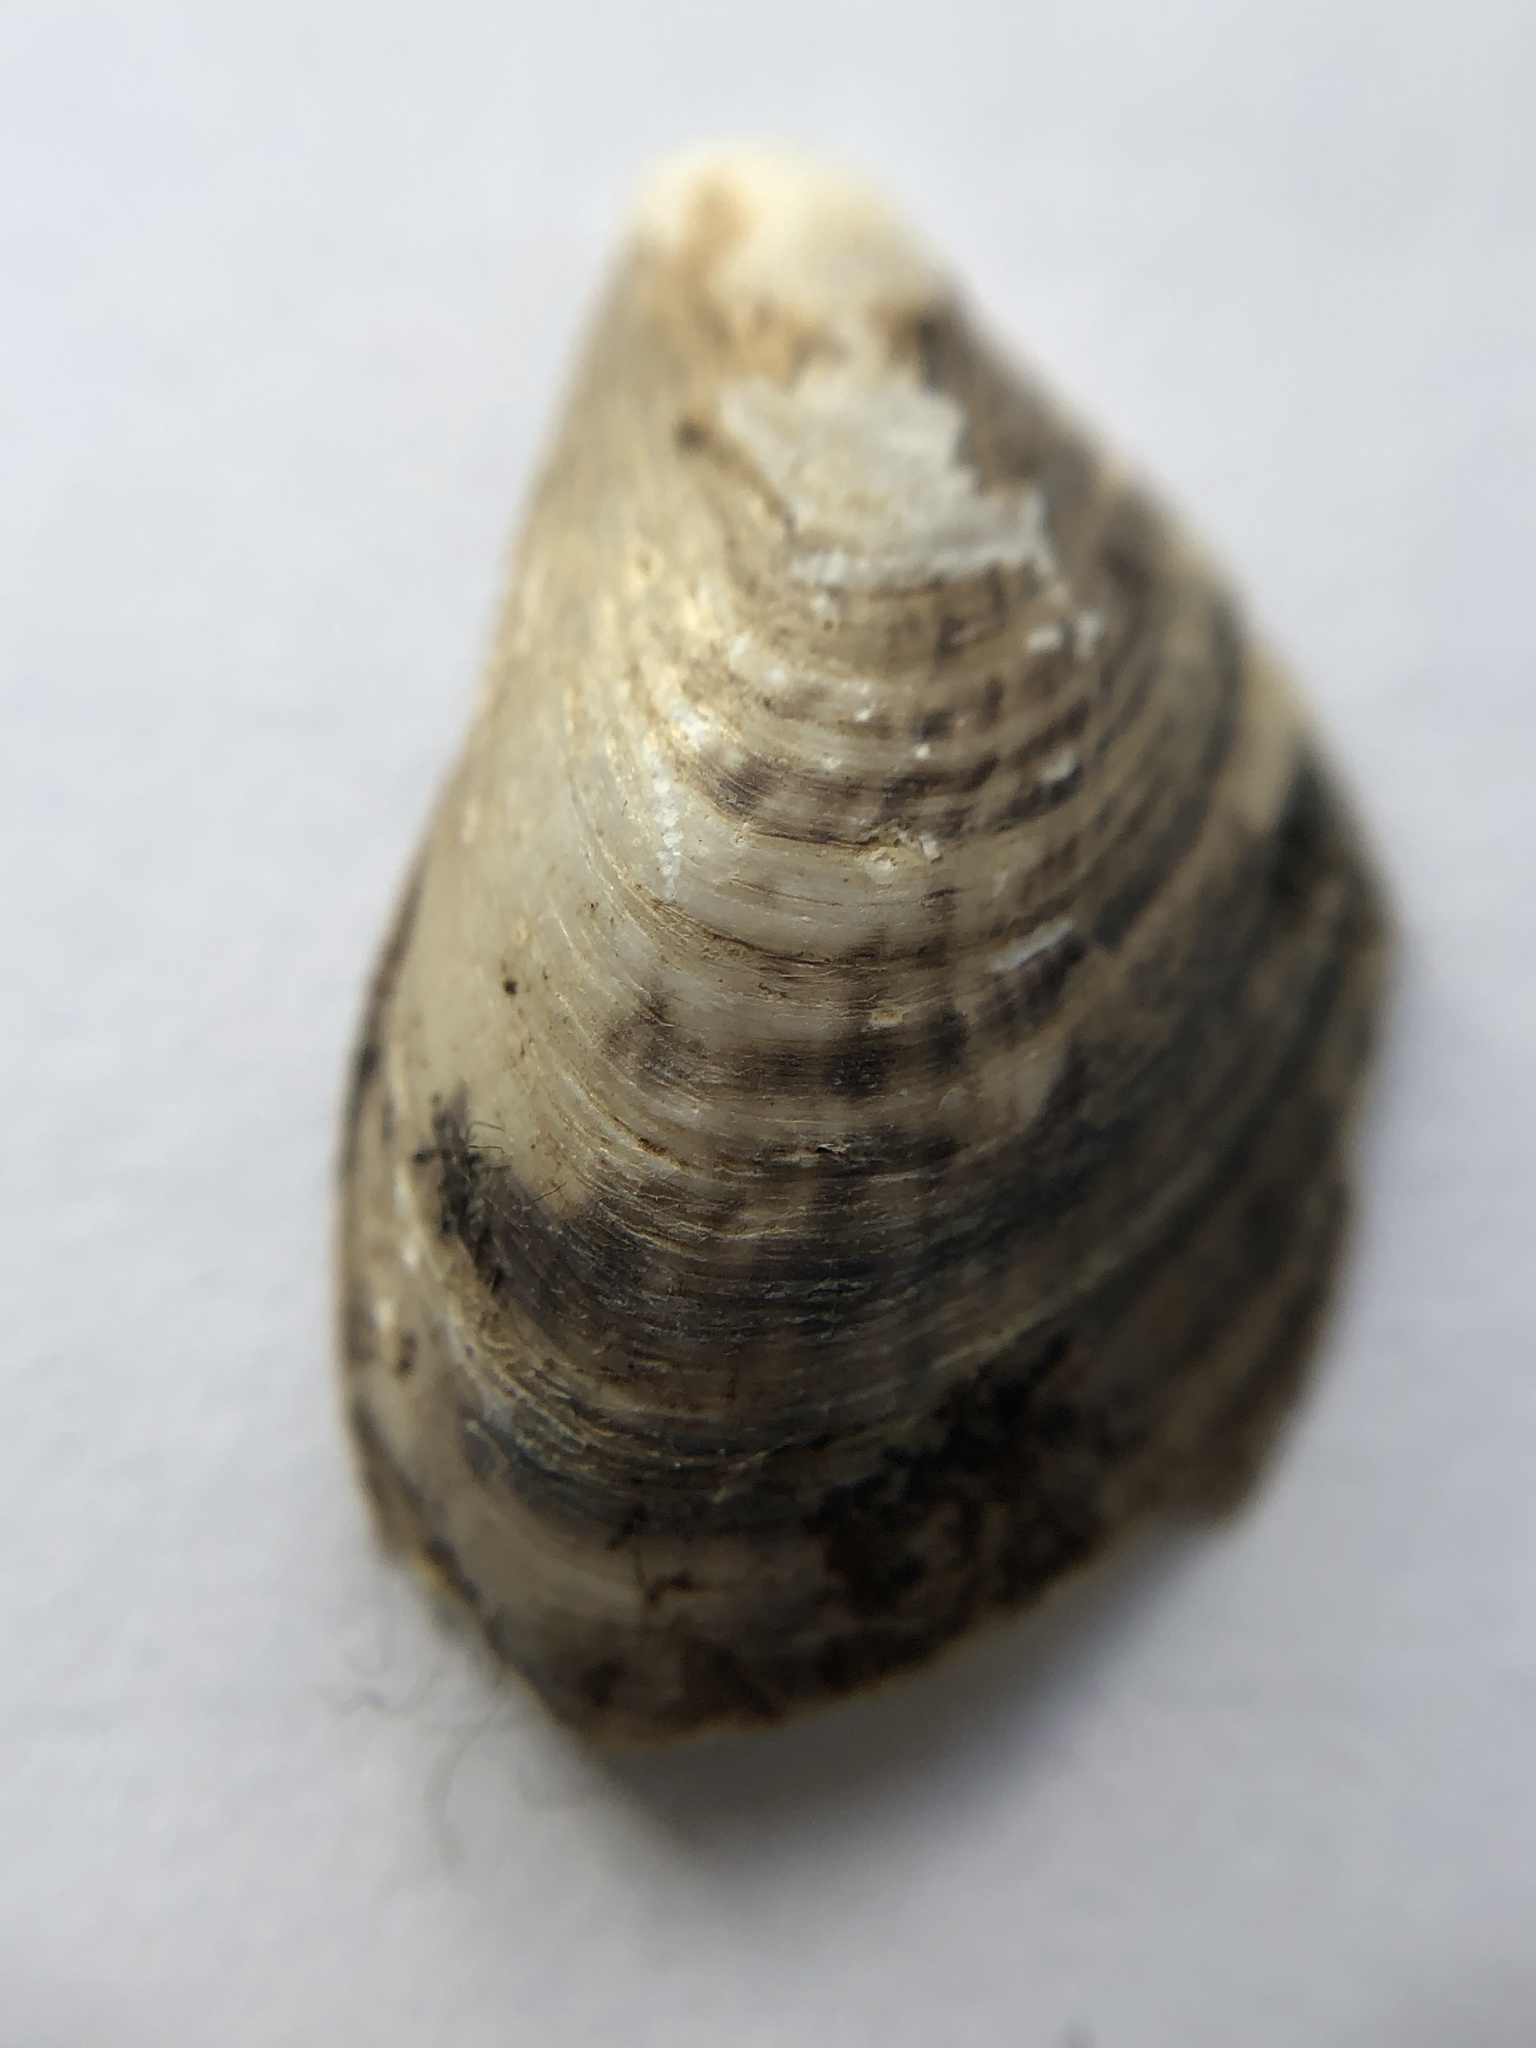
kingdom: Animalia
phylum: Mollusca
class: Bivalvia
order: Myida
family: Dreissenidae
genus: Dreissena
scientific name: Dreissena bugensis
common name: Quagga mussel
